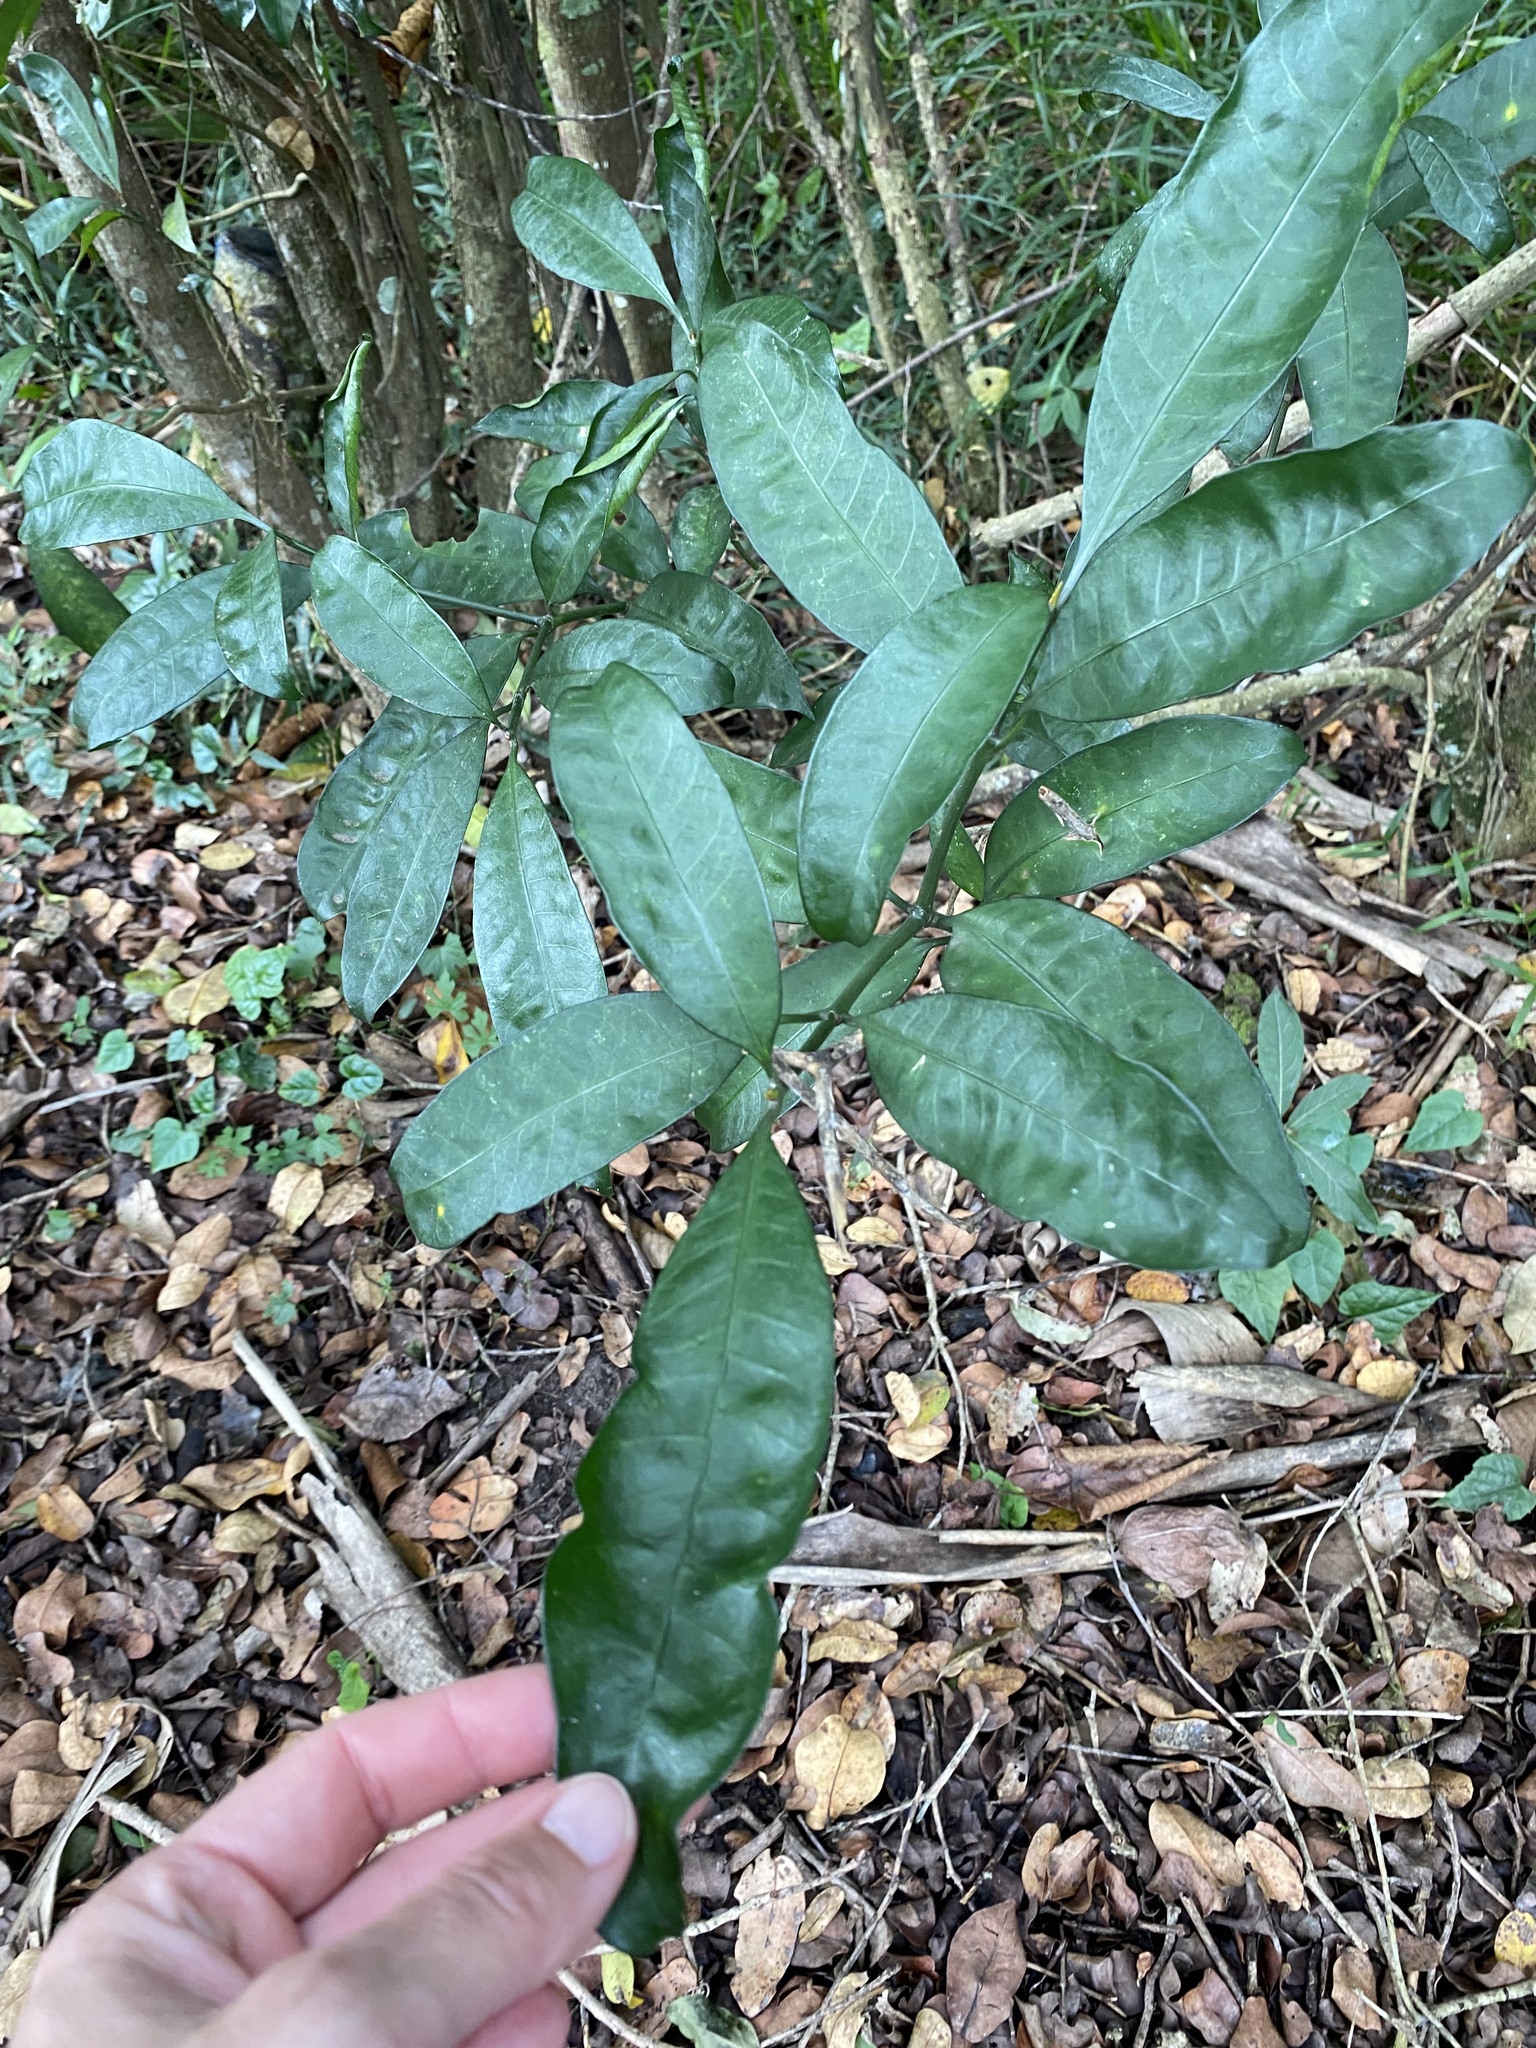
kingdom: Plantae
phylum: Tracheophyta
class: Magnoliopsida
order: Gentianales
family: Apocynaceae
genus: Tabernaemontana
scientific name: Tabernaemontana ventricosa
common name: Forest toad-tree
